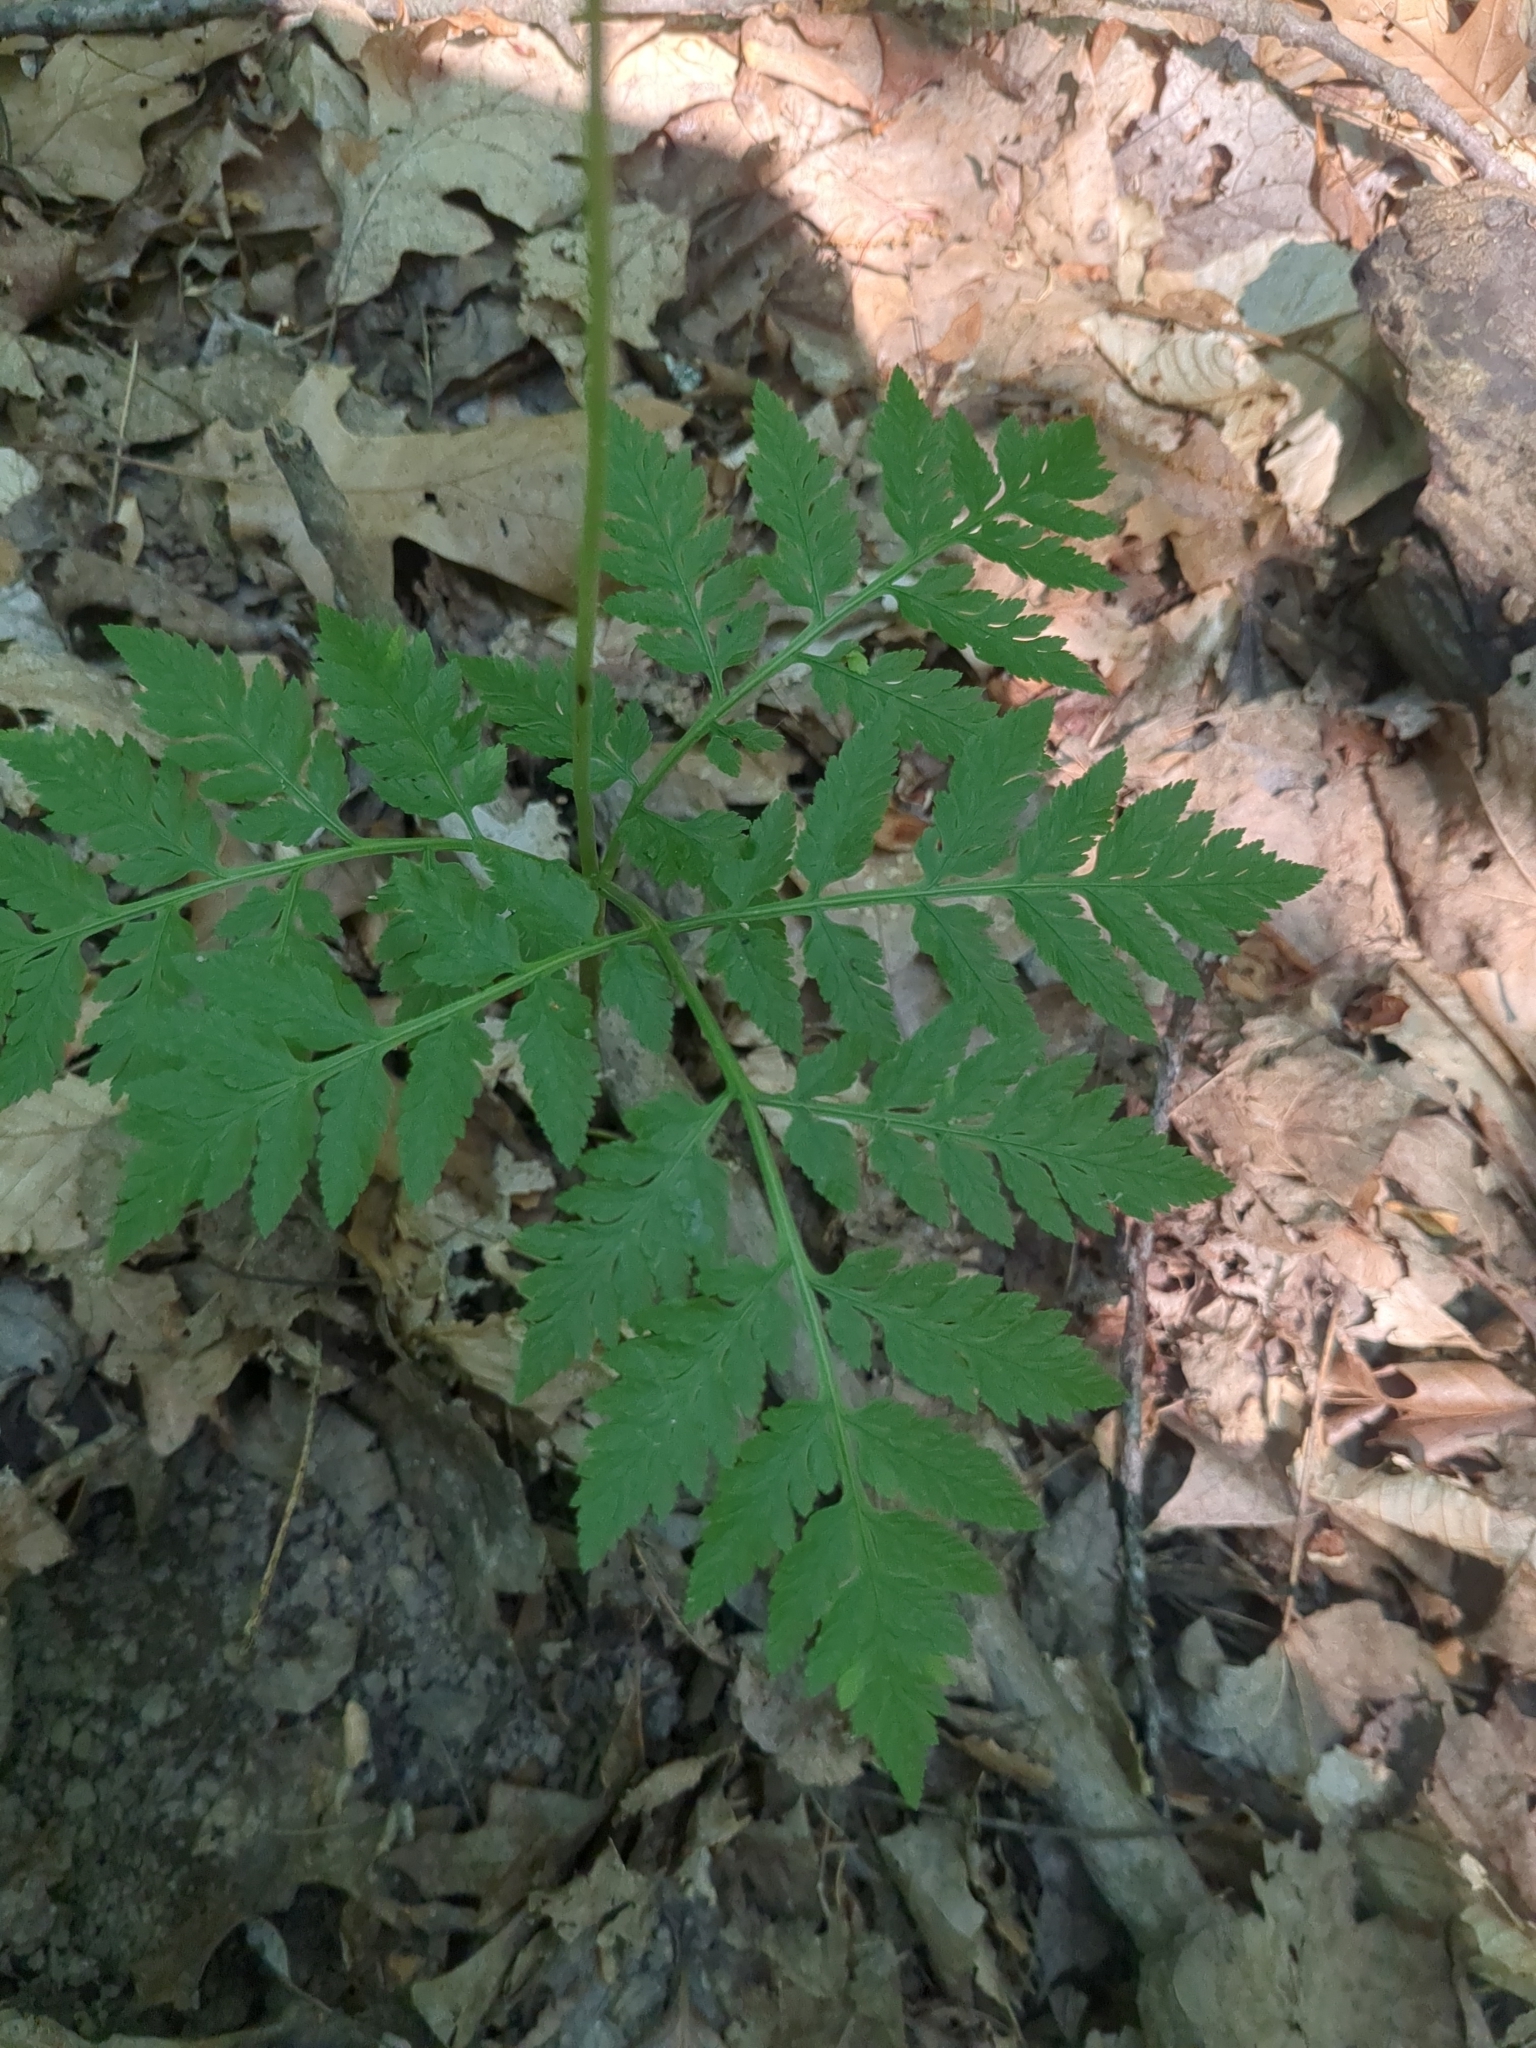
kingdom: Plantae
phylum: Tracheophyta
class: Polypodiopsida
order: Ophioglossales
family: Ophioglossaceae
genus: Botrypus
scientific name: Botrypus virginianus
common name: Common grapefern
